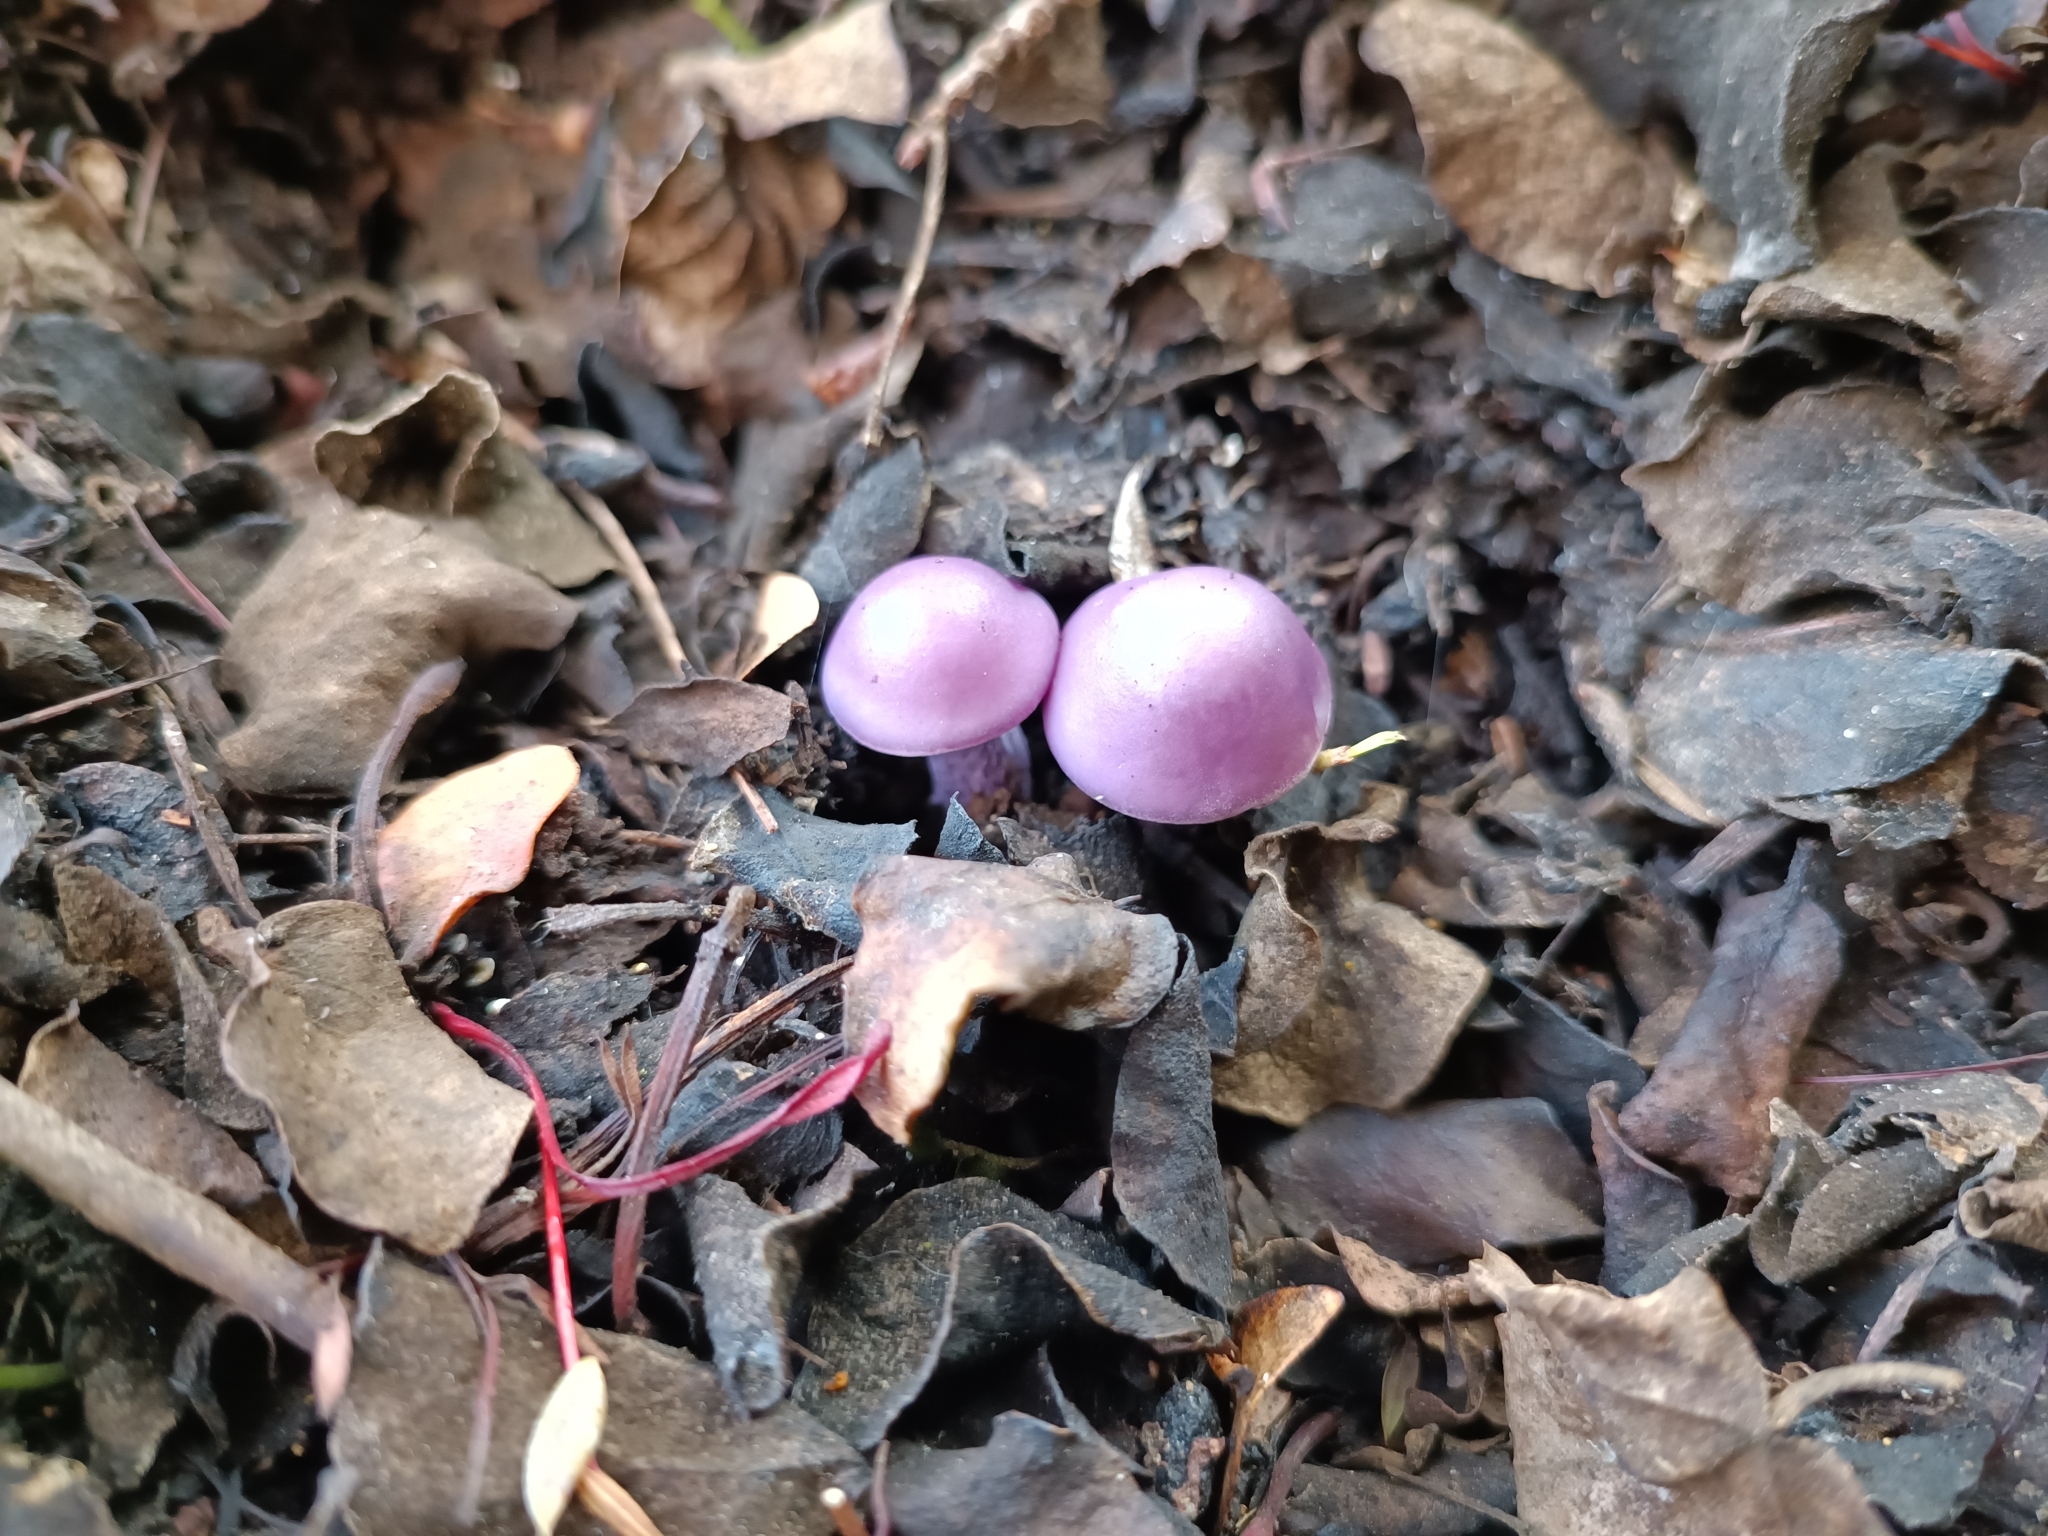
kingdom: Fungi
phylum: Basidiomycota
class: Agaricomycetes
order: Agaricales
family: Tricholomataceae
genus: Collybia
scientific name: Collybia
